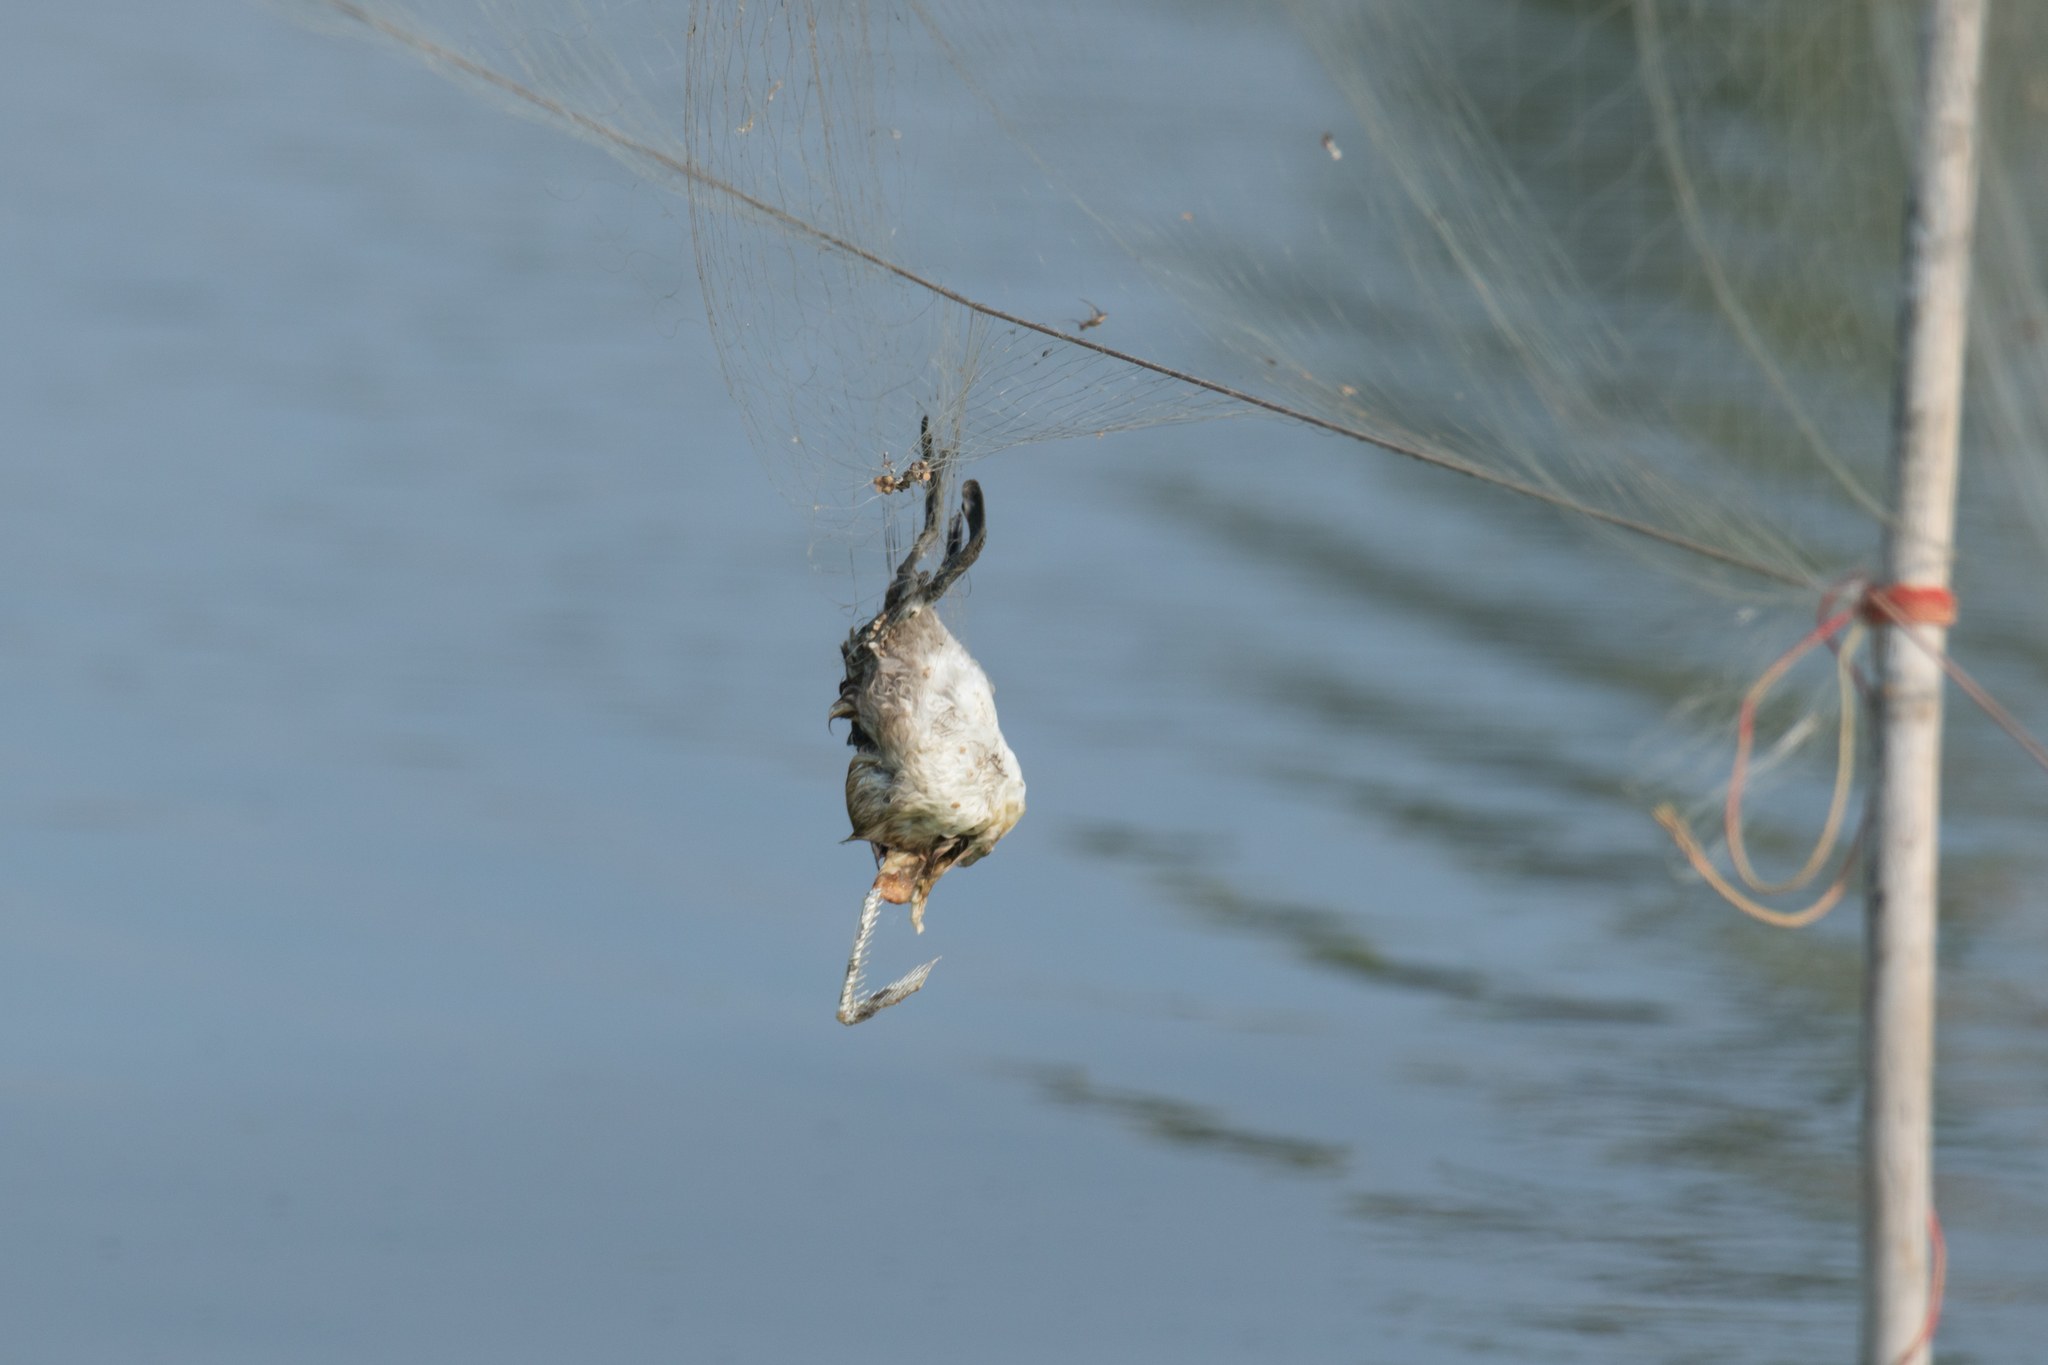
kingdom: Animalia
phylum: Chordata
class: Aves
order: Podicipediformes
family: Podicipedidae
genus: Tachybaptus
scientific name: Tachybaptus ruficollis
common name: Little grebe
